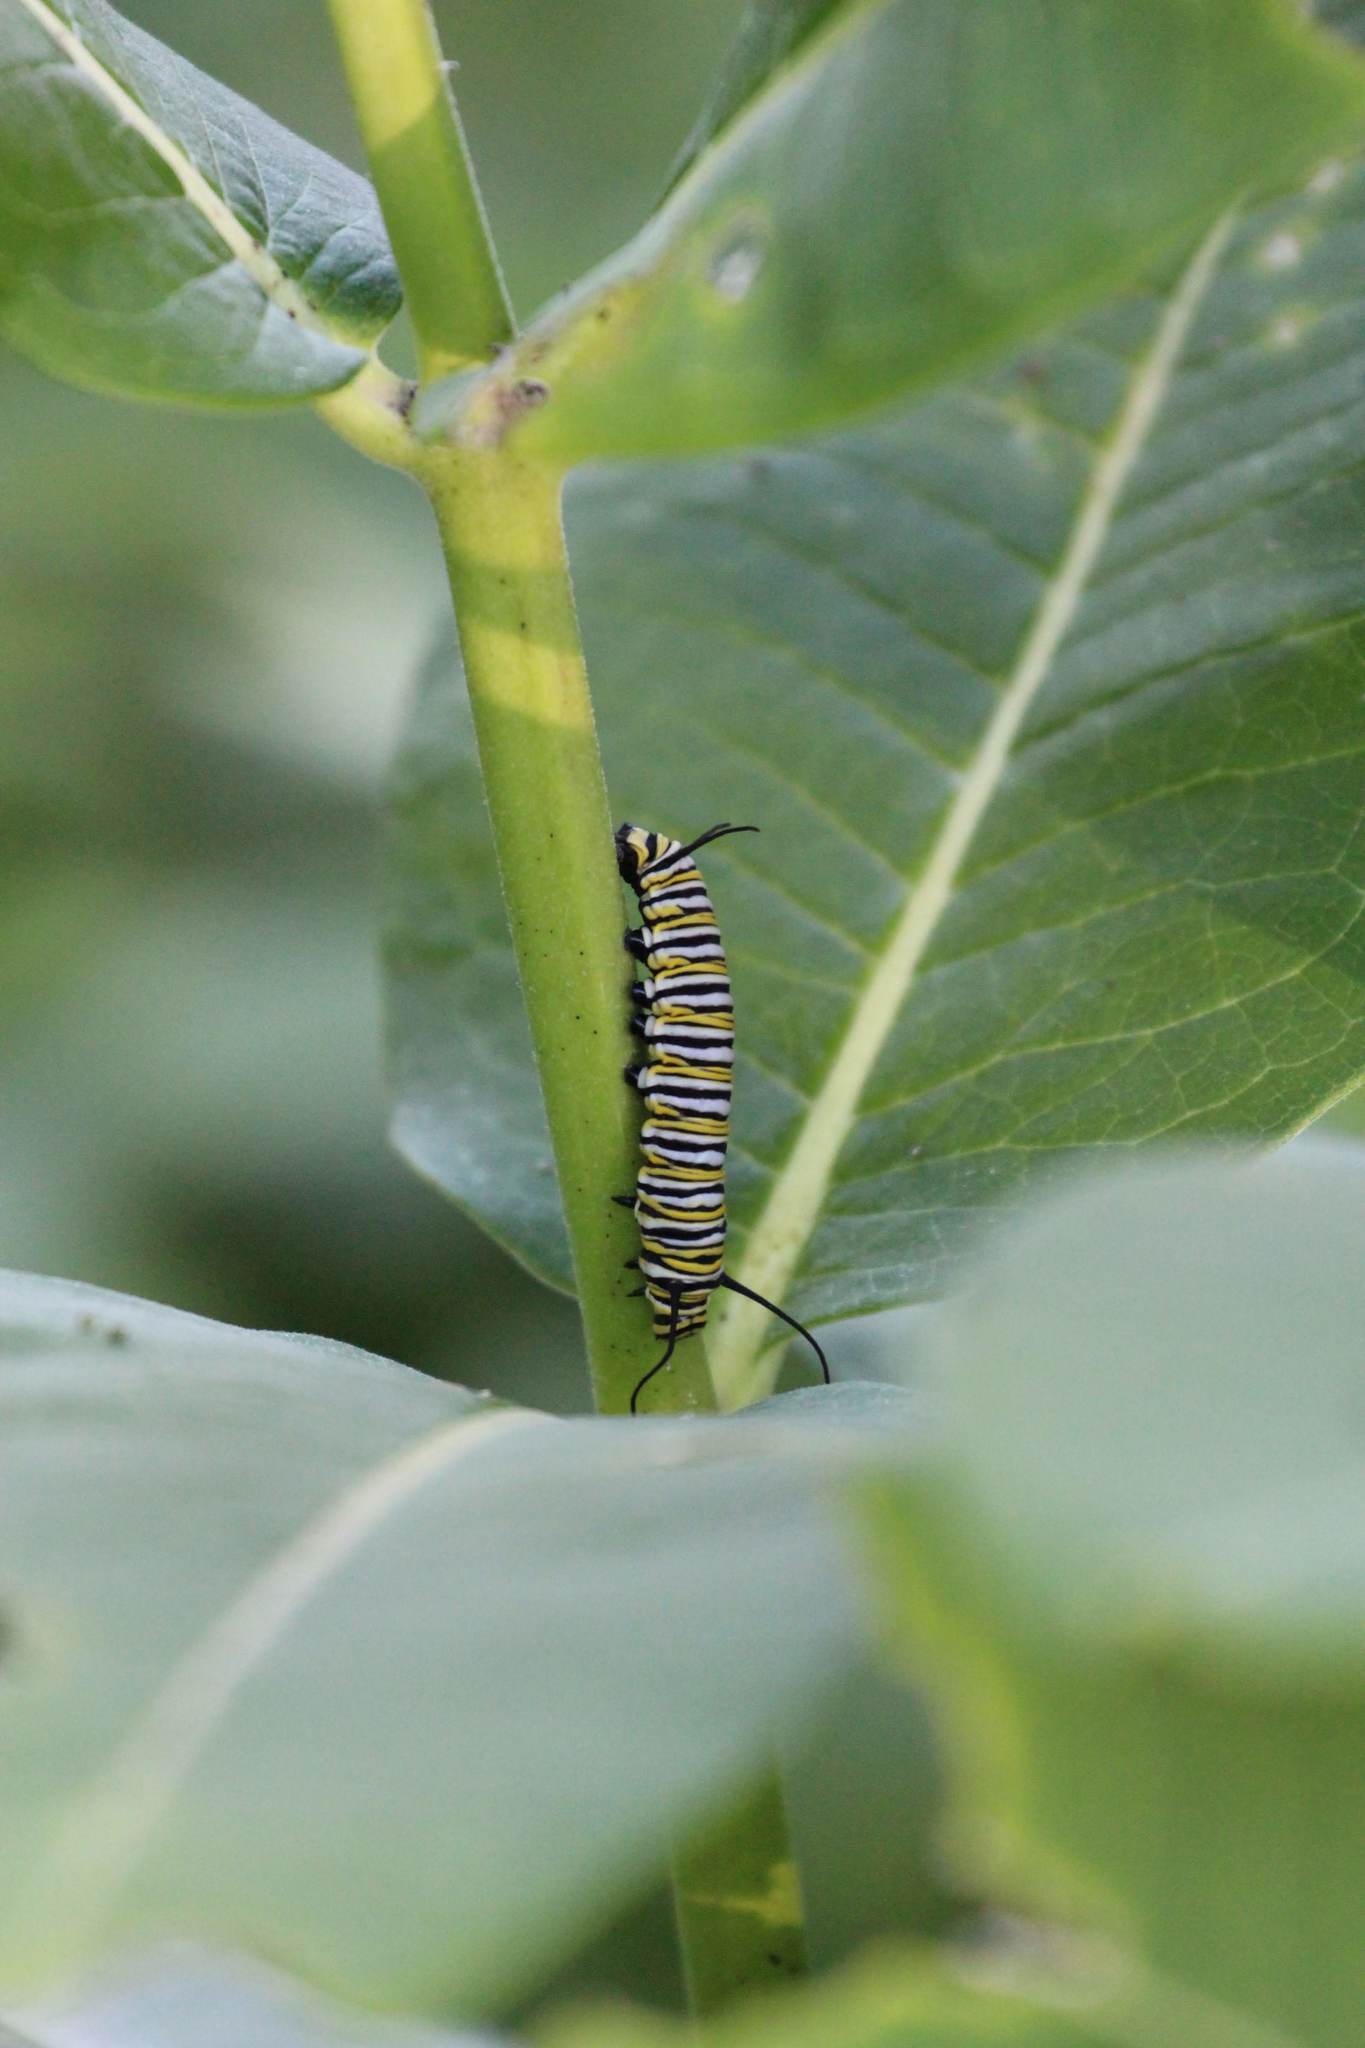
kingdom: Animalia
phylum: Arthropoda
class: Insecta
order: Lepidoptera
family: Nymphalidae
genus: Danaus
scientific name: Danaus plexippus
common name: Monarch
